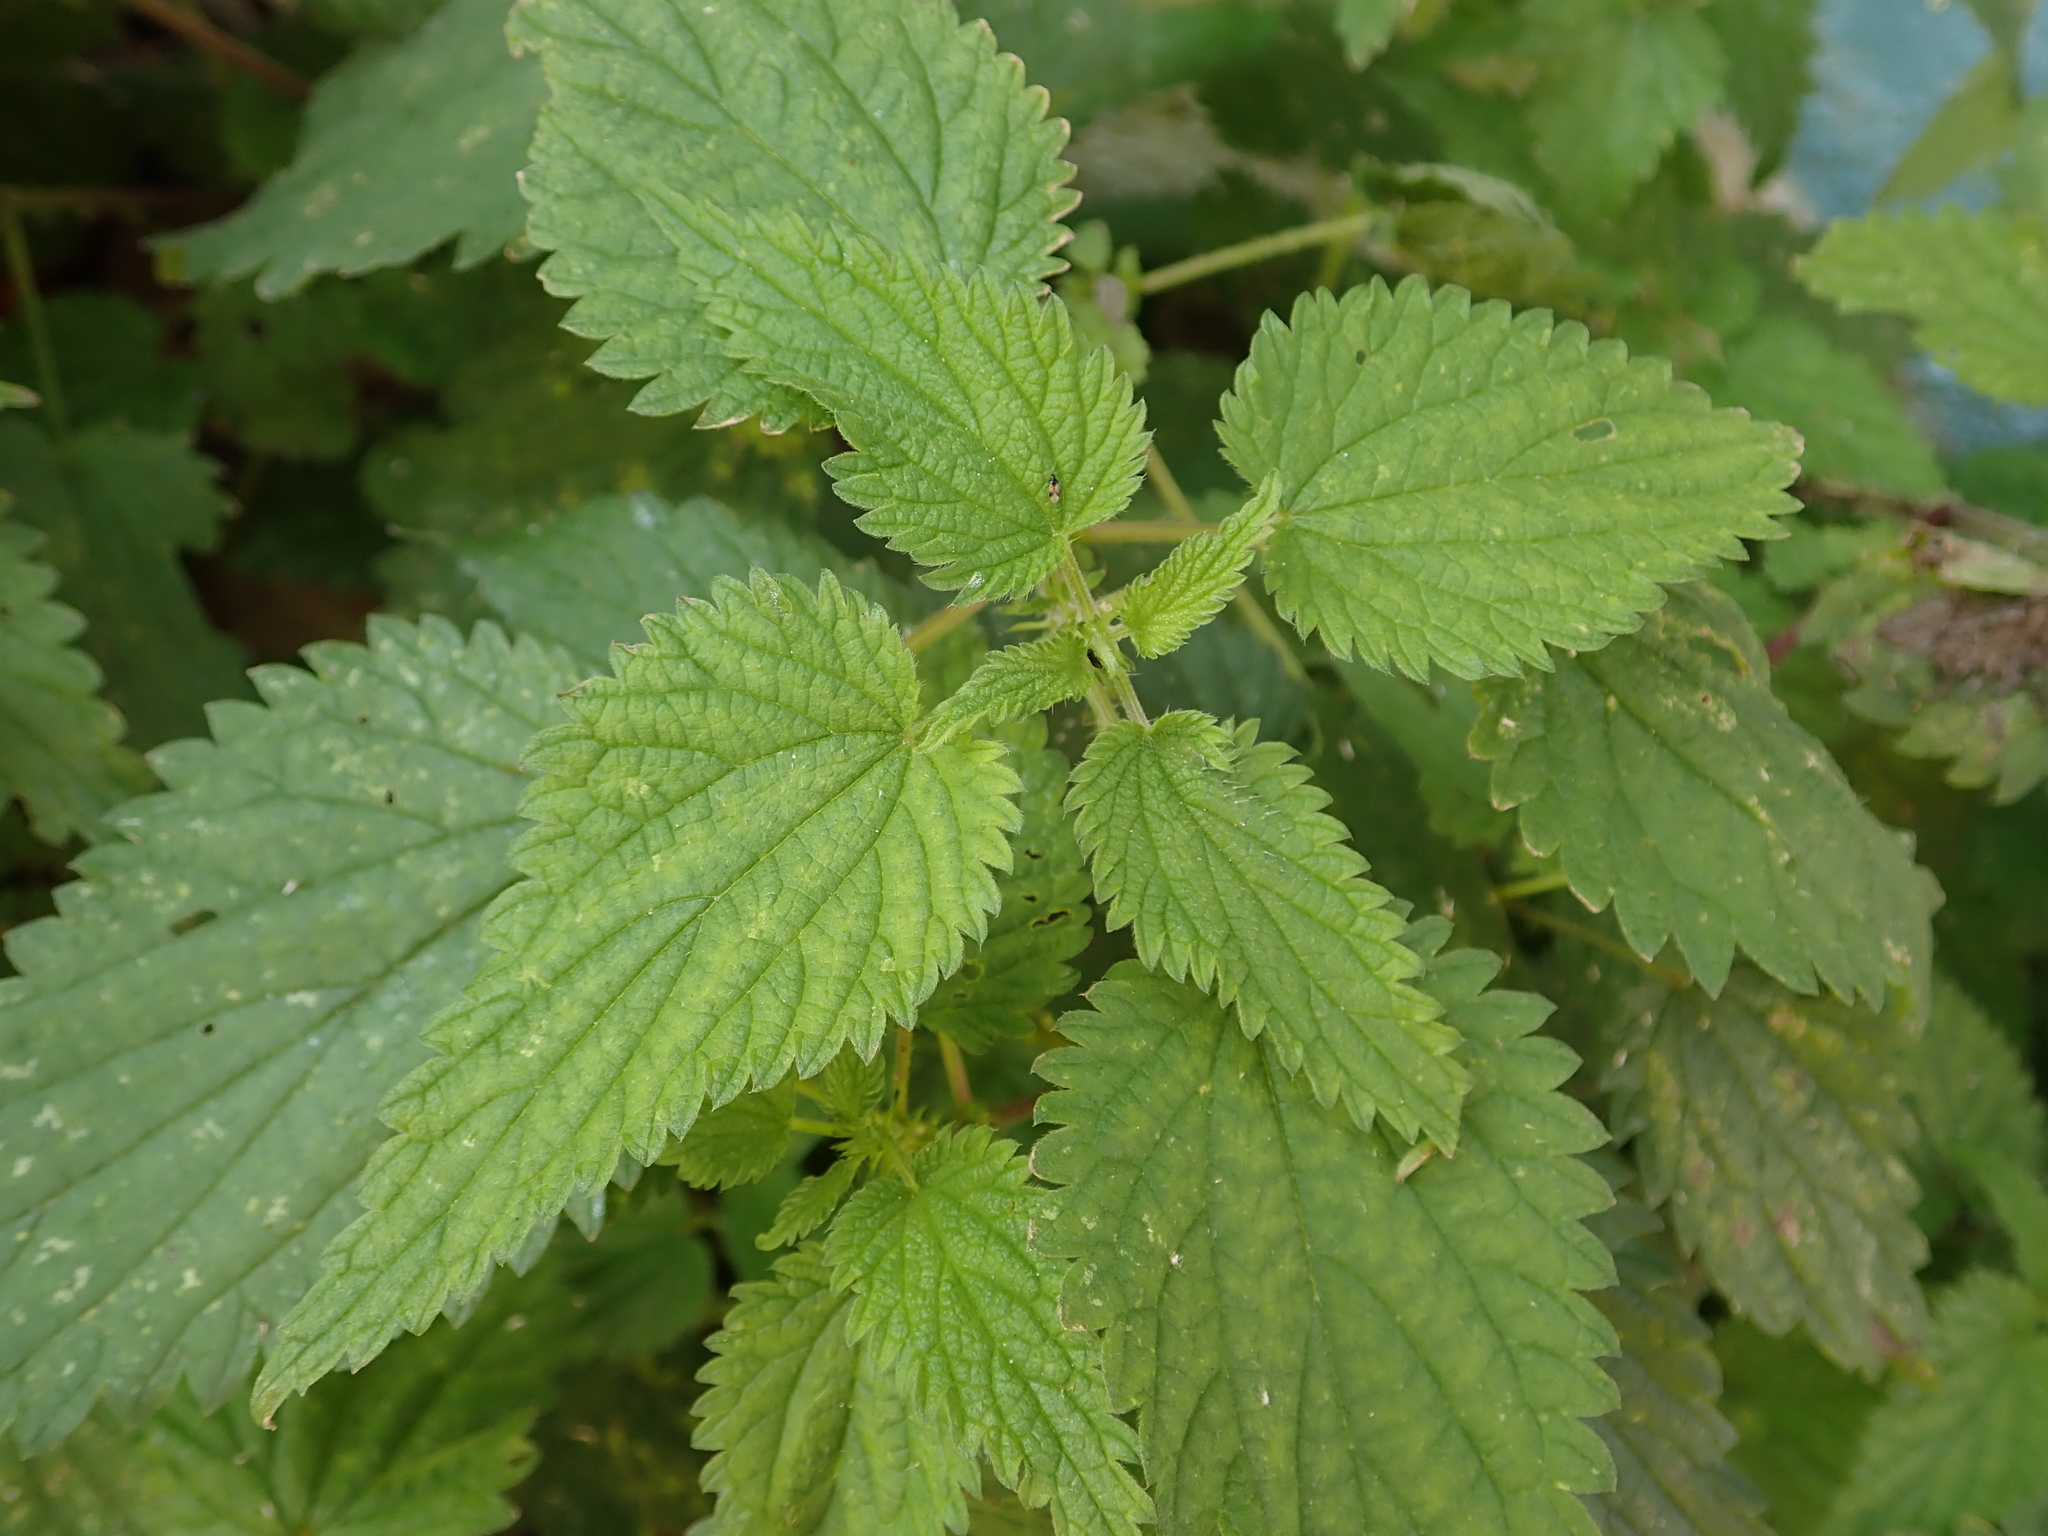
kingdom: Plantae
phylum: Tracheophyta
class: Magnoliopsida
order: Rosales
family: Urticaceae
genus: Urtica
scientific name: Urtica dioica
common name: Common nettle
